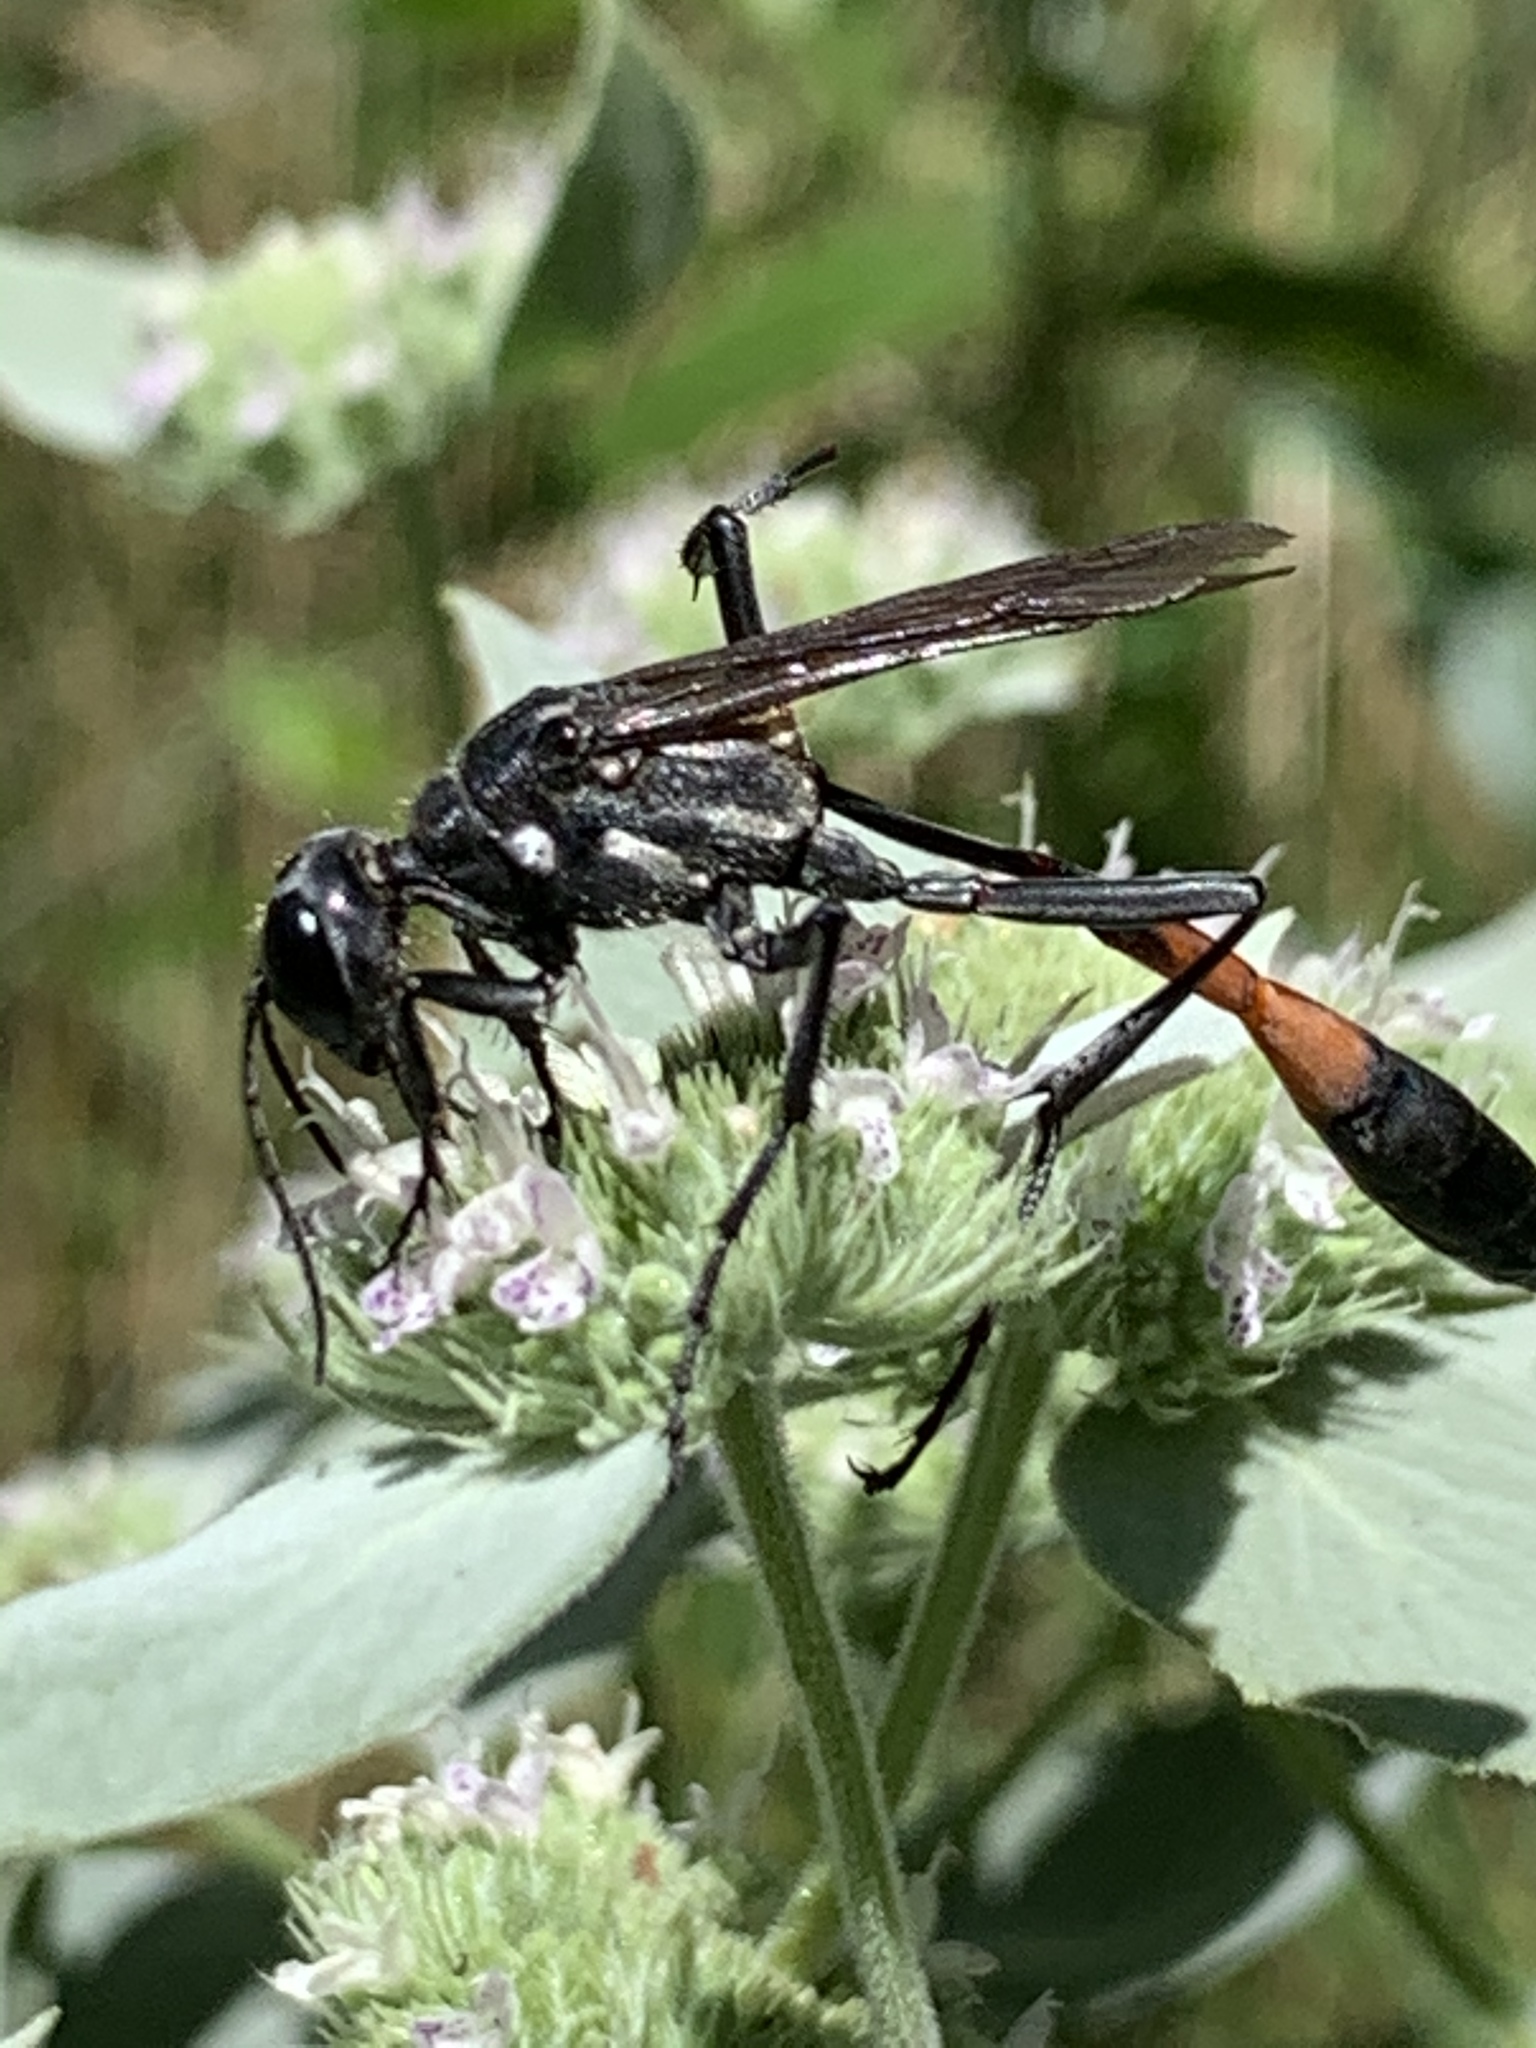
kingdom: Animalia
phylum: Arthropoda
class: Insecta
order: Hymenoptera
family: Sphecidae
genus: Ammophila
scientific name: Ammophila procera
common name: Common thread-waisted wasp
